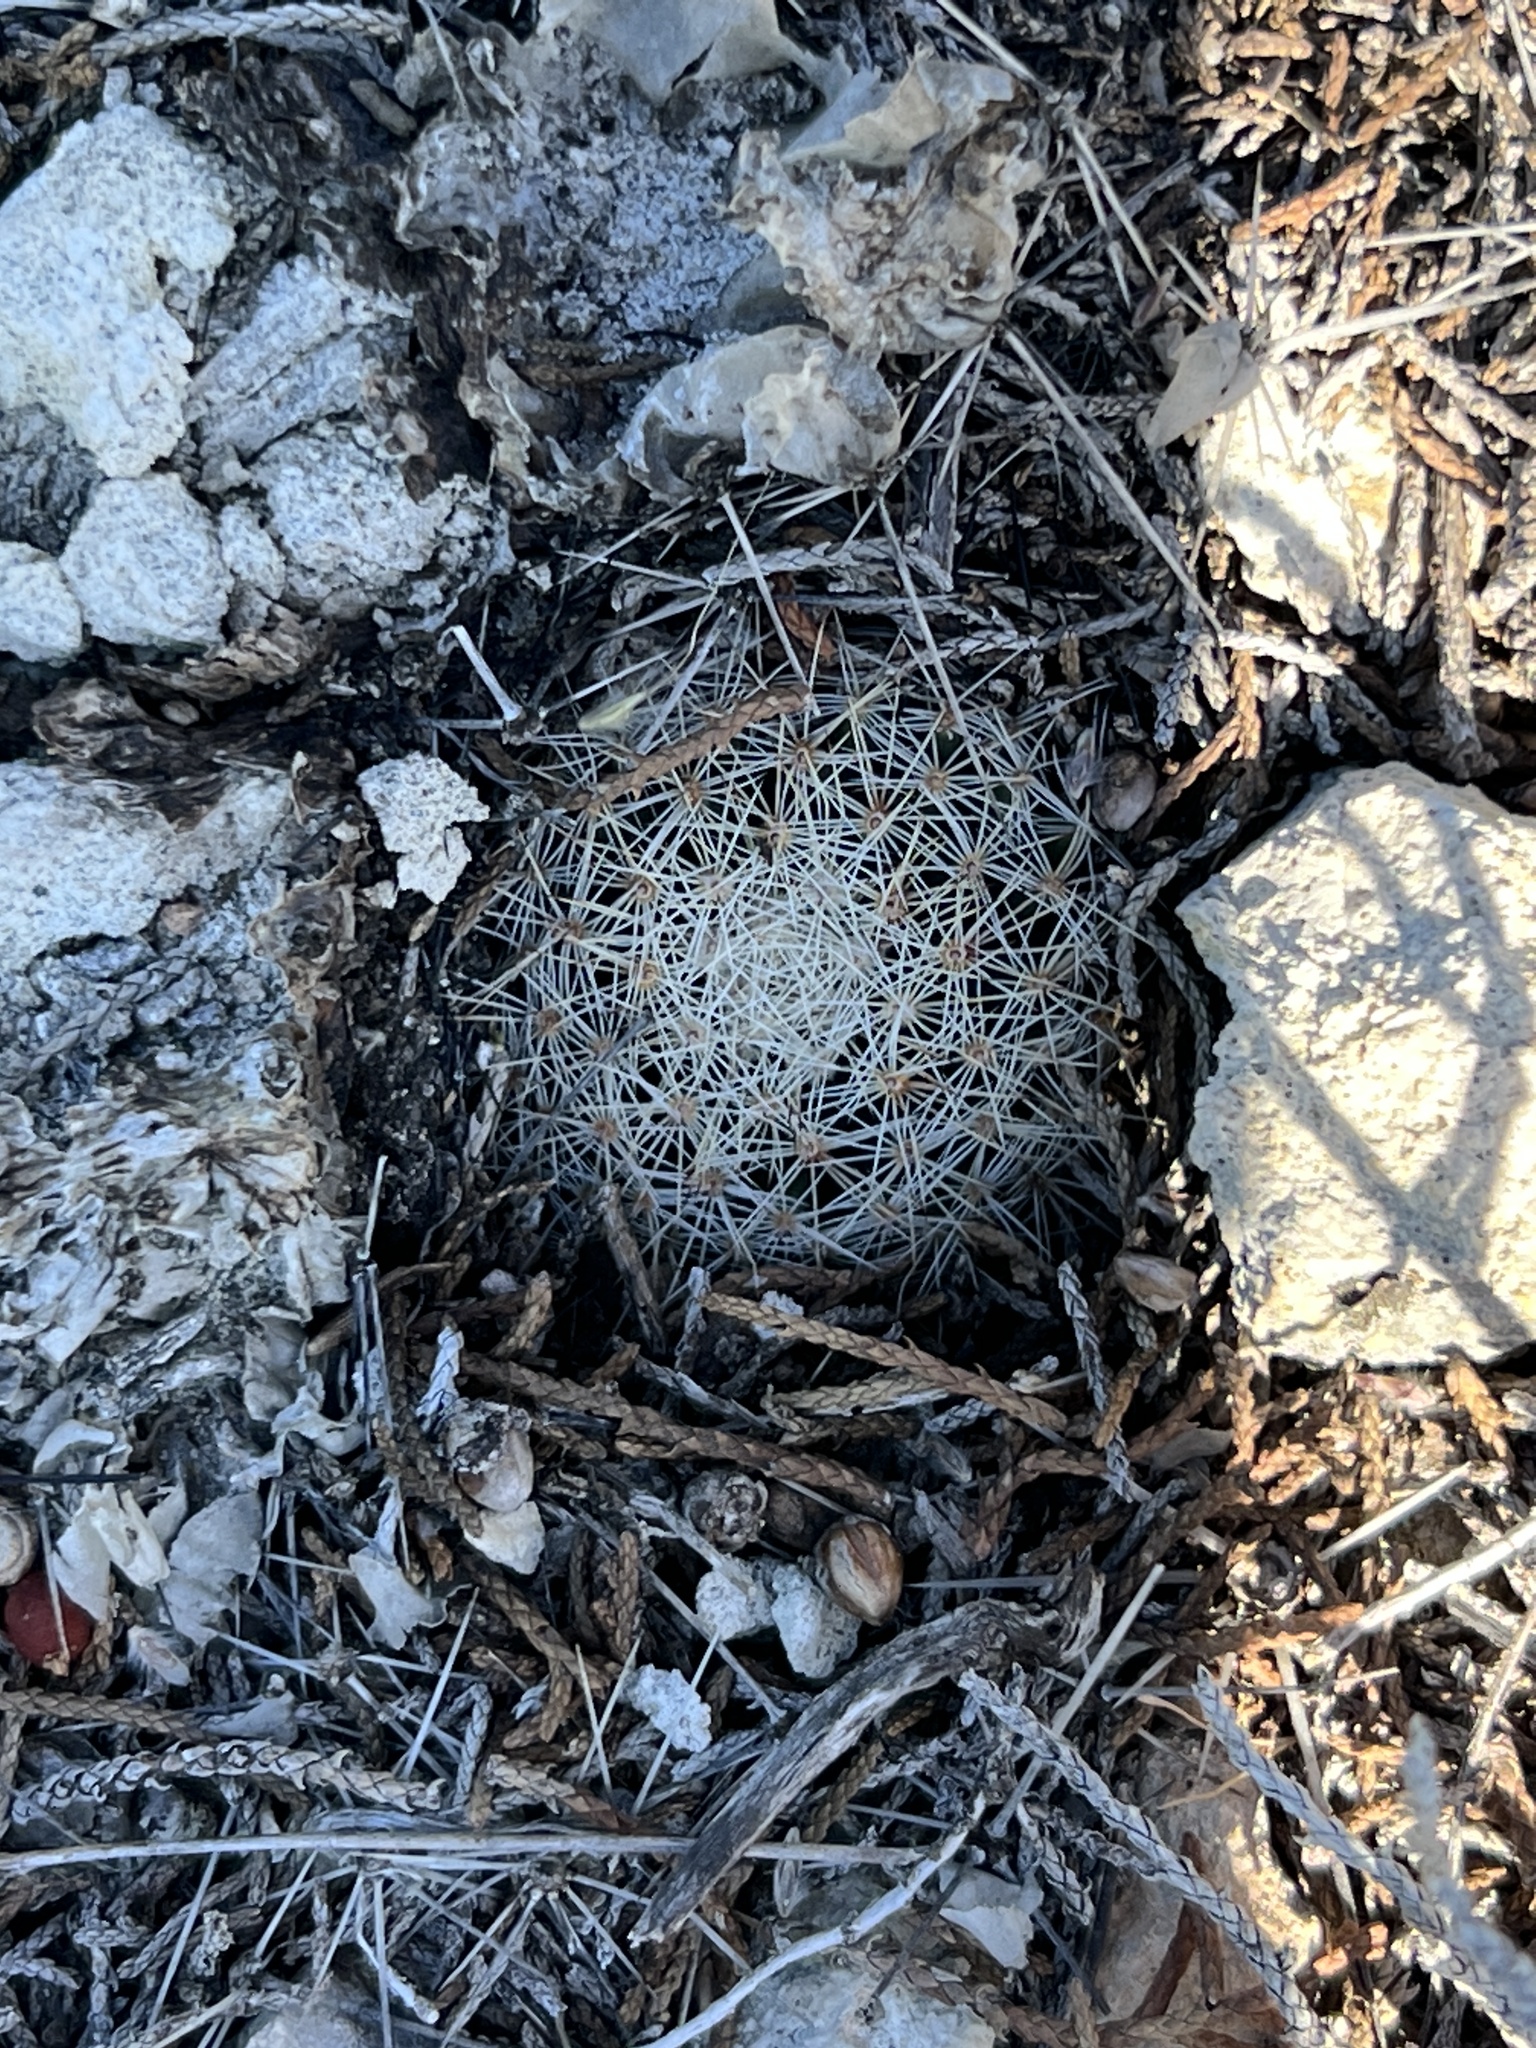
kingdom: Plantae
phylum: Tracheophyta
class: Magnoliopsida
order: Caryophyllales
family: Cactaceae
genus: Mammillaria
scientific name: Mammillaria heyderi
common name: Little nipple cactus
